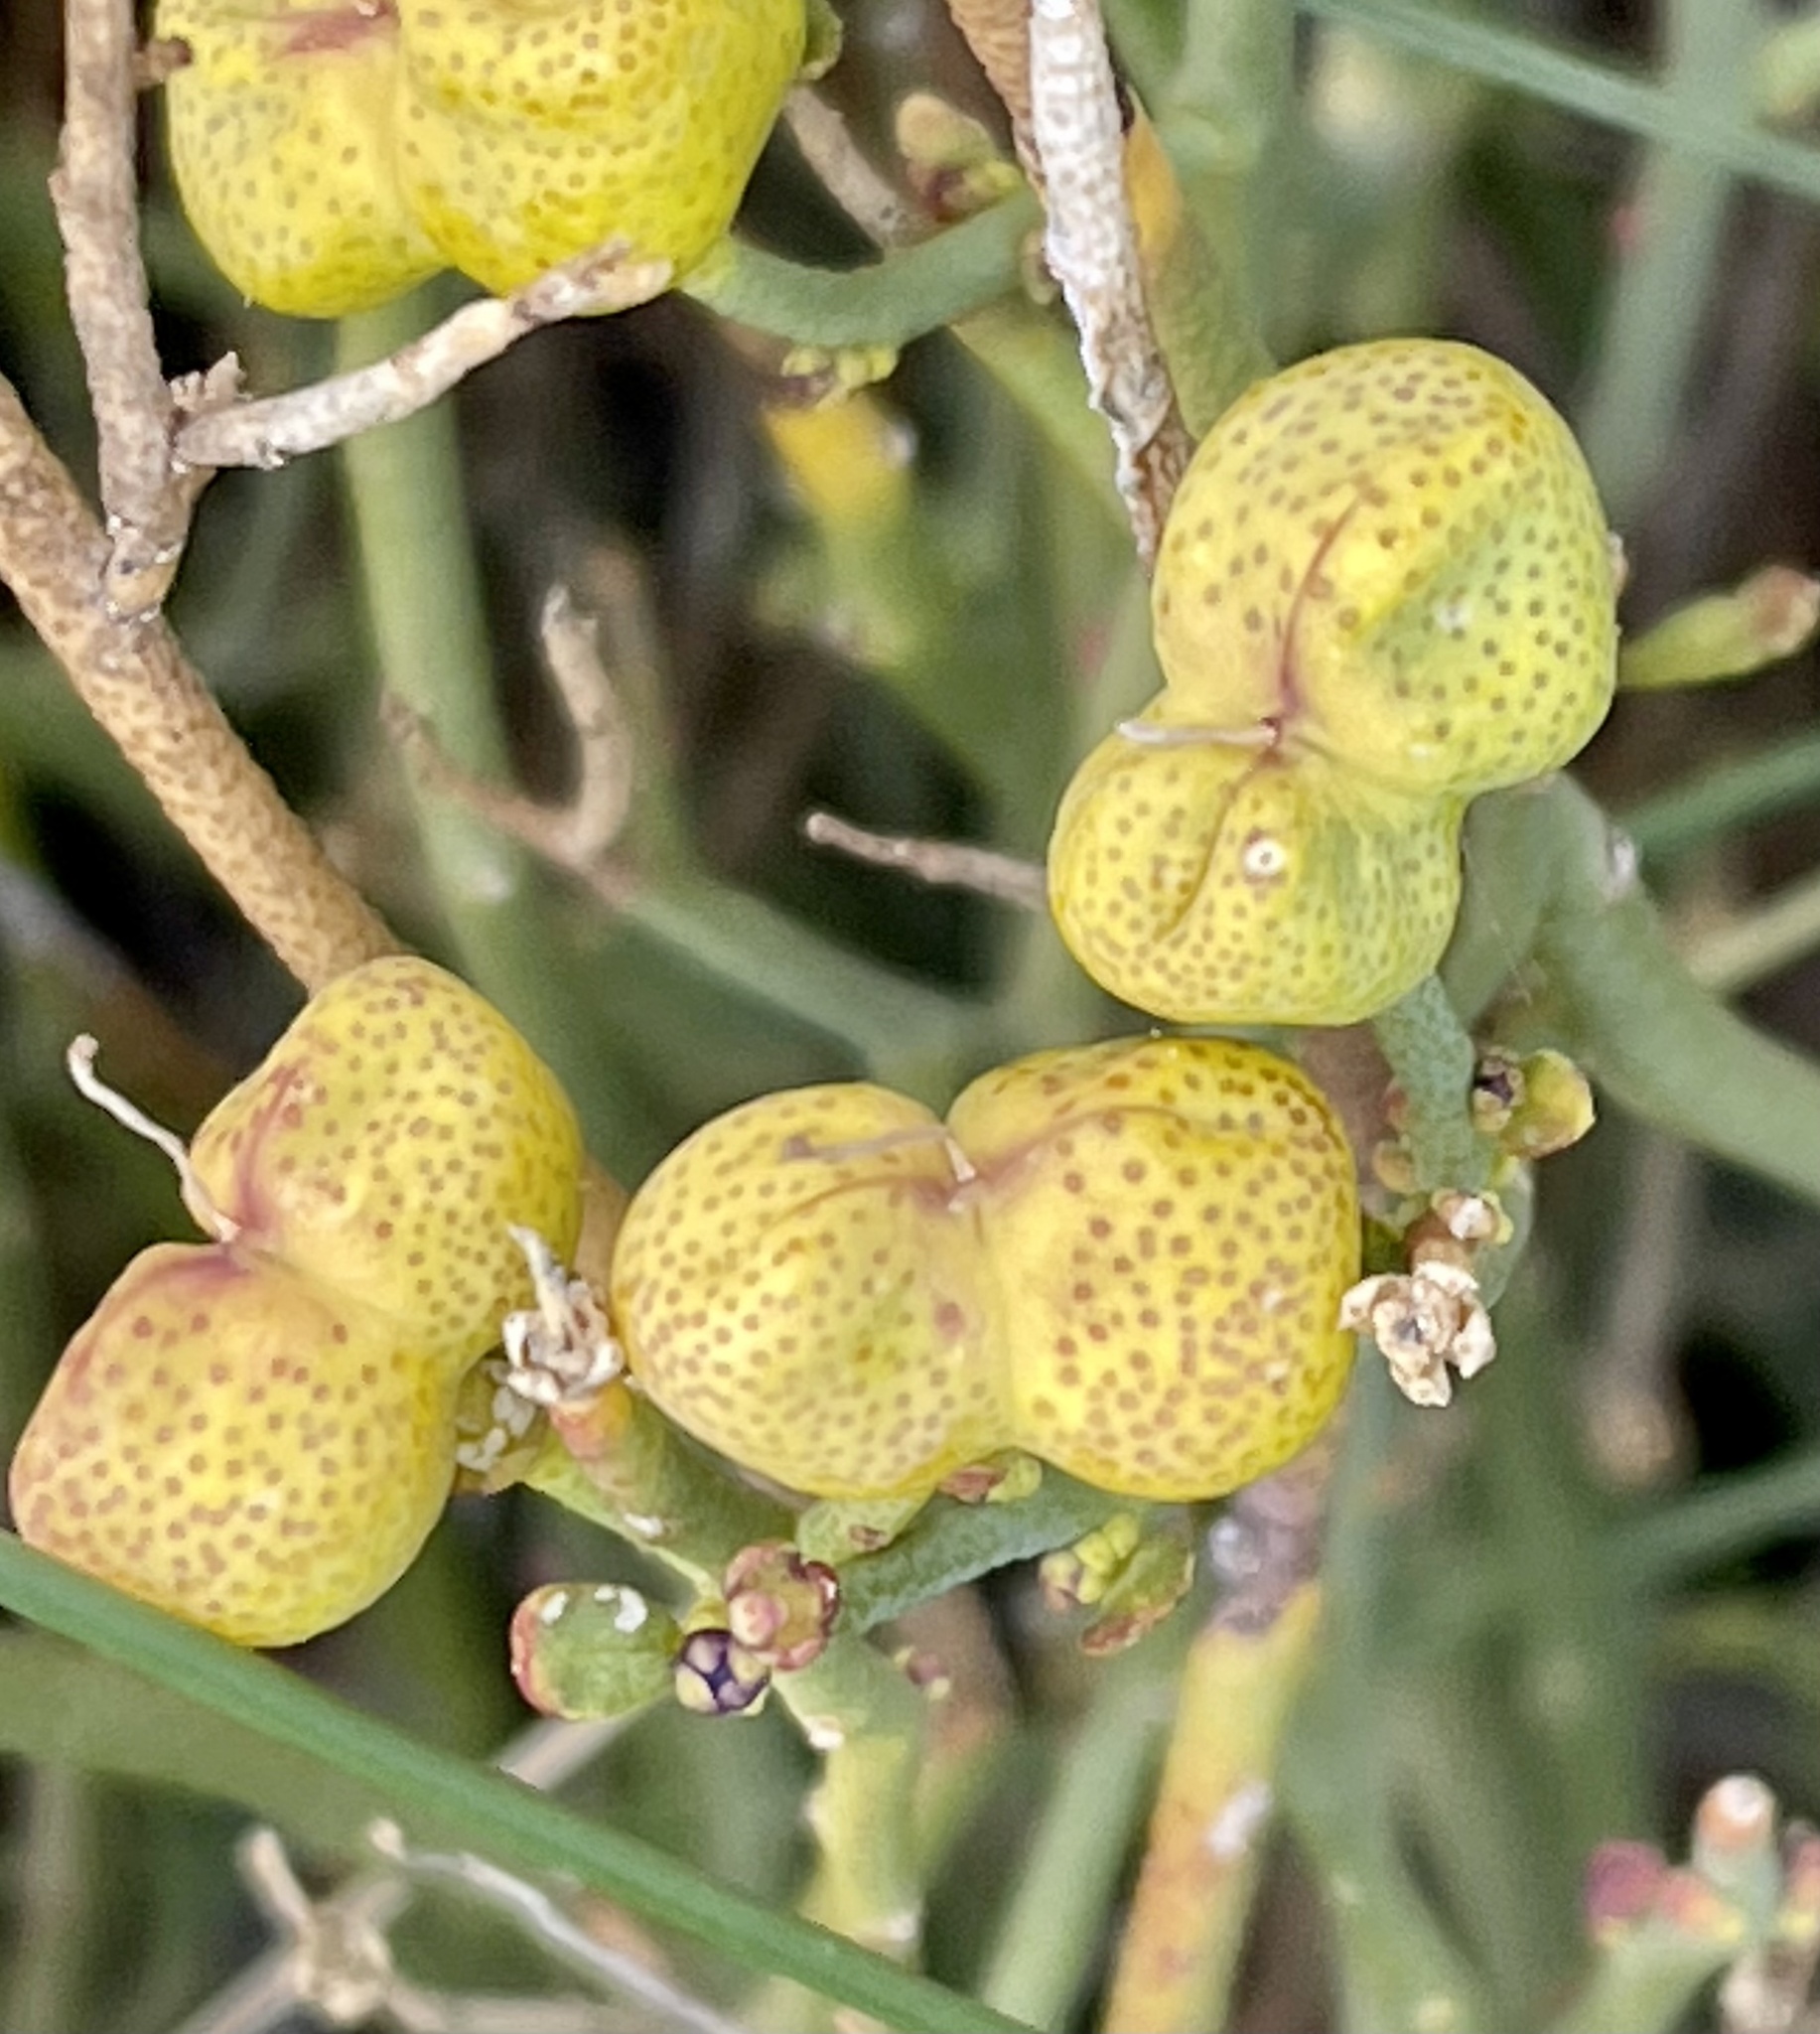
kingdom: Plantae
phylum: Tracheophyta
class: Magnoliopsida
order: Sapindales
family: Rutaceae
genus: Thamnosma
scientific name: Thamnosma montana
